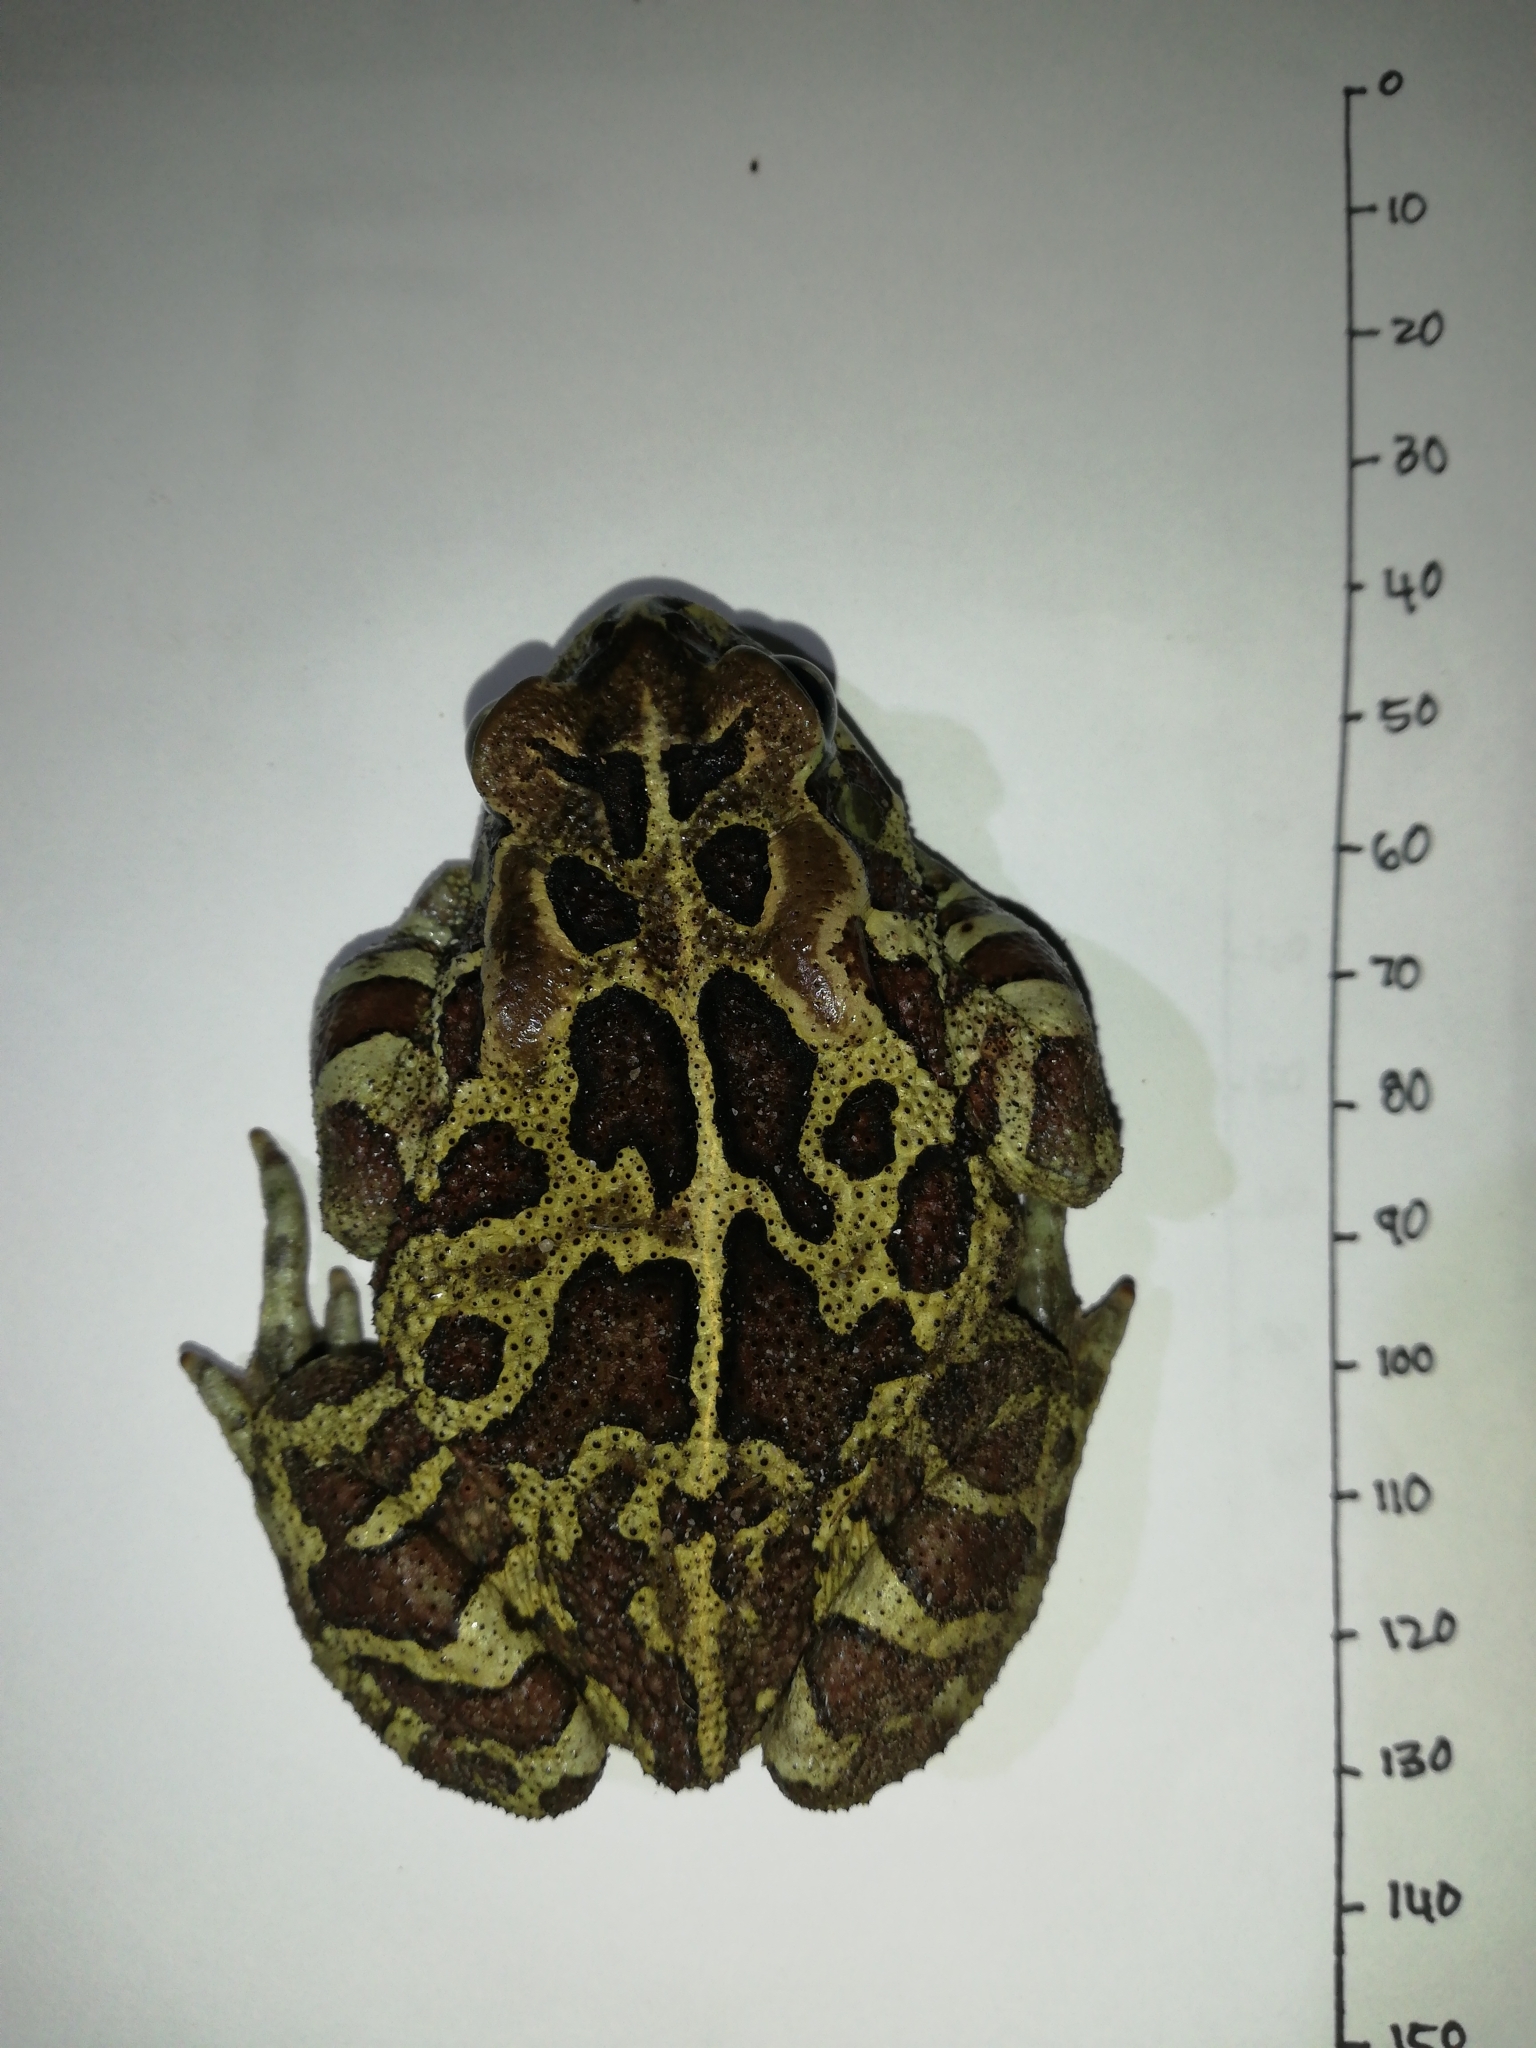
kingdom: Animalia
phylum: Chordata
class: Amphibia
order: Anura
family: Bufonidae
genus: Sclerophrys
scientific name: Sclerophrys pantherina
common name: Panther toad
